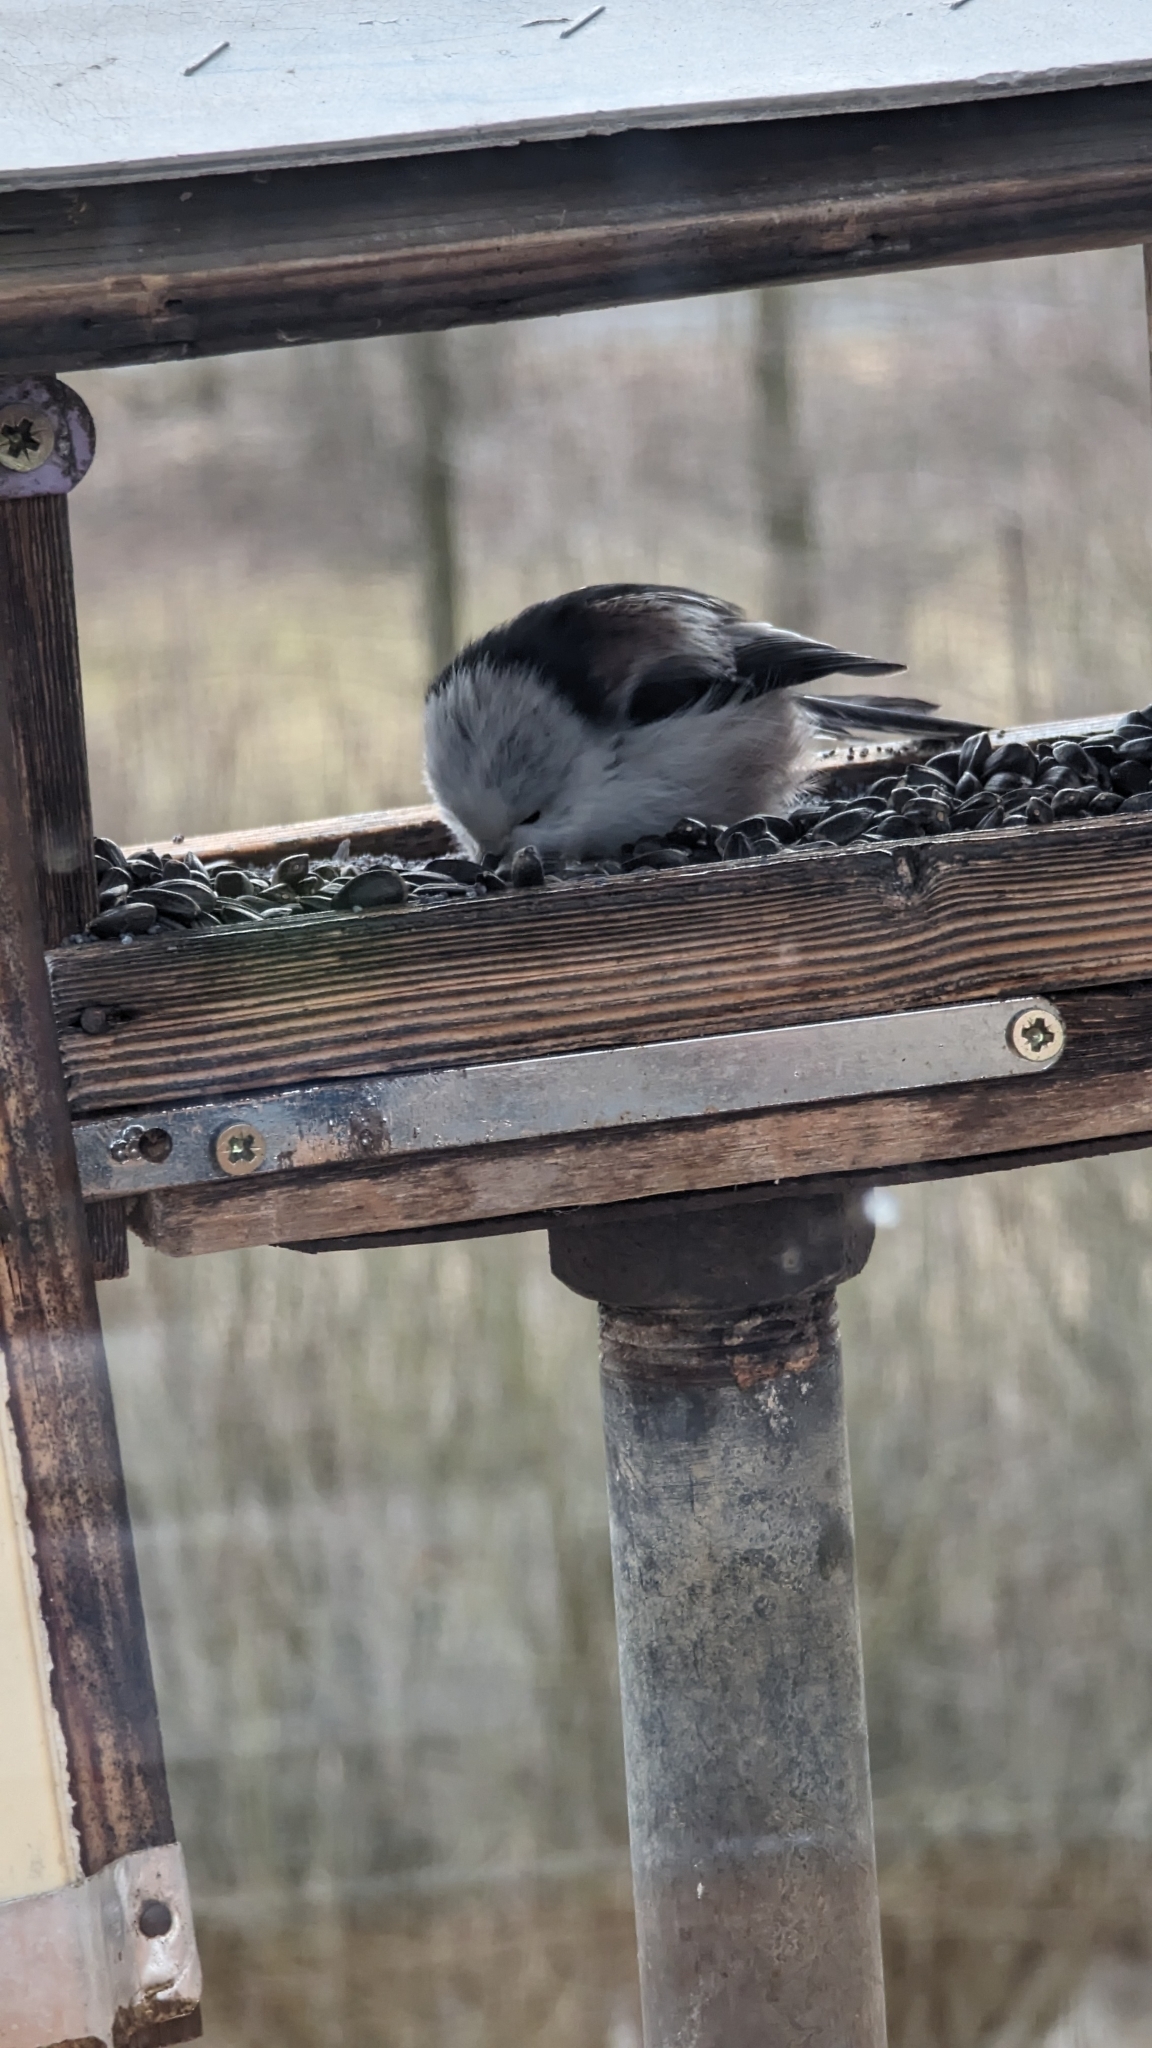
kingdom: Animalia
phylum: Chordata
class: Aves
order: Passeriformes
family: Aegithalidae
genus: Aegithalos
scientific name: Aegithalos caudatus
